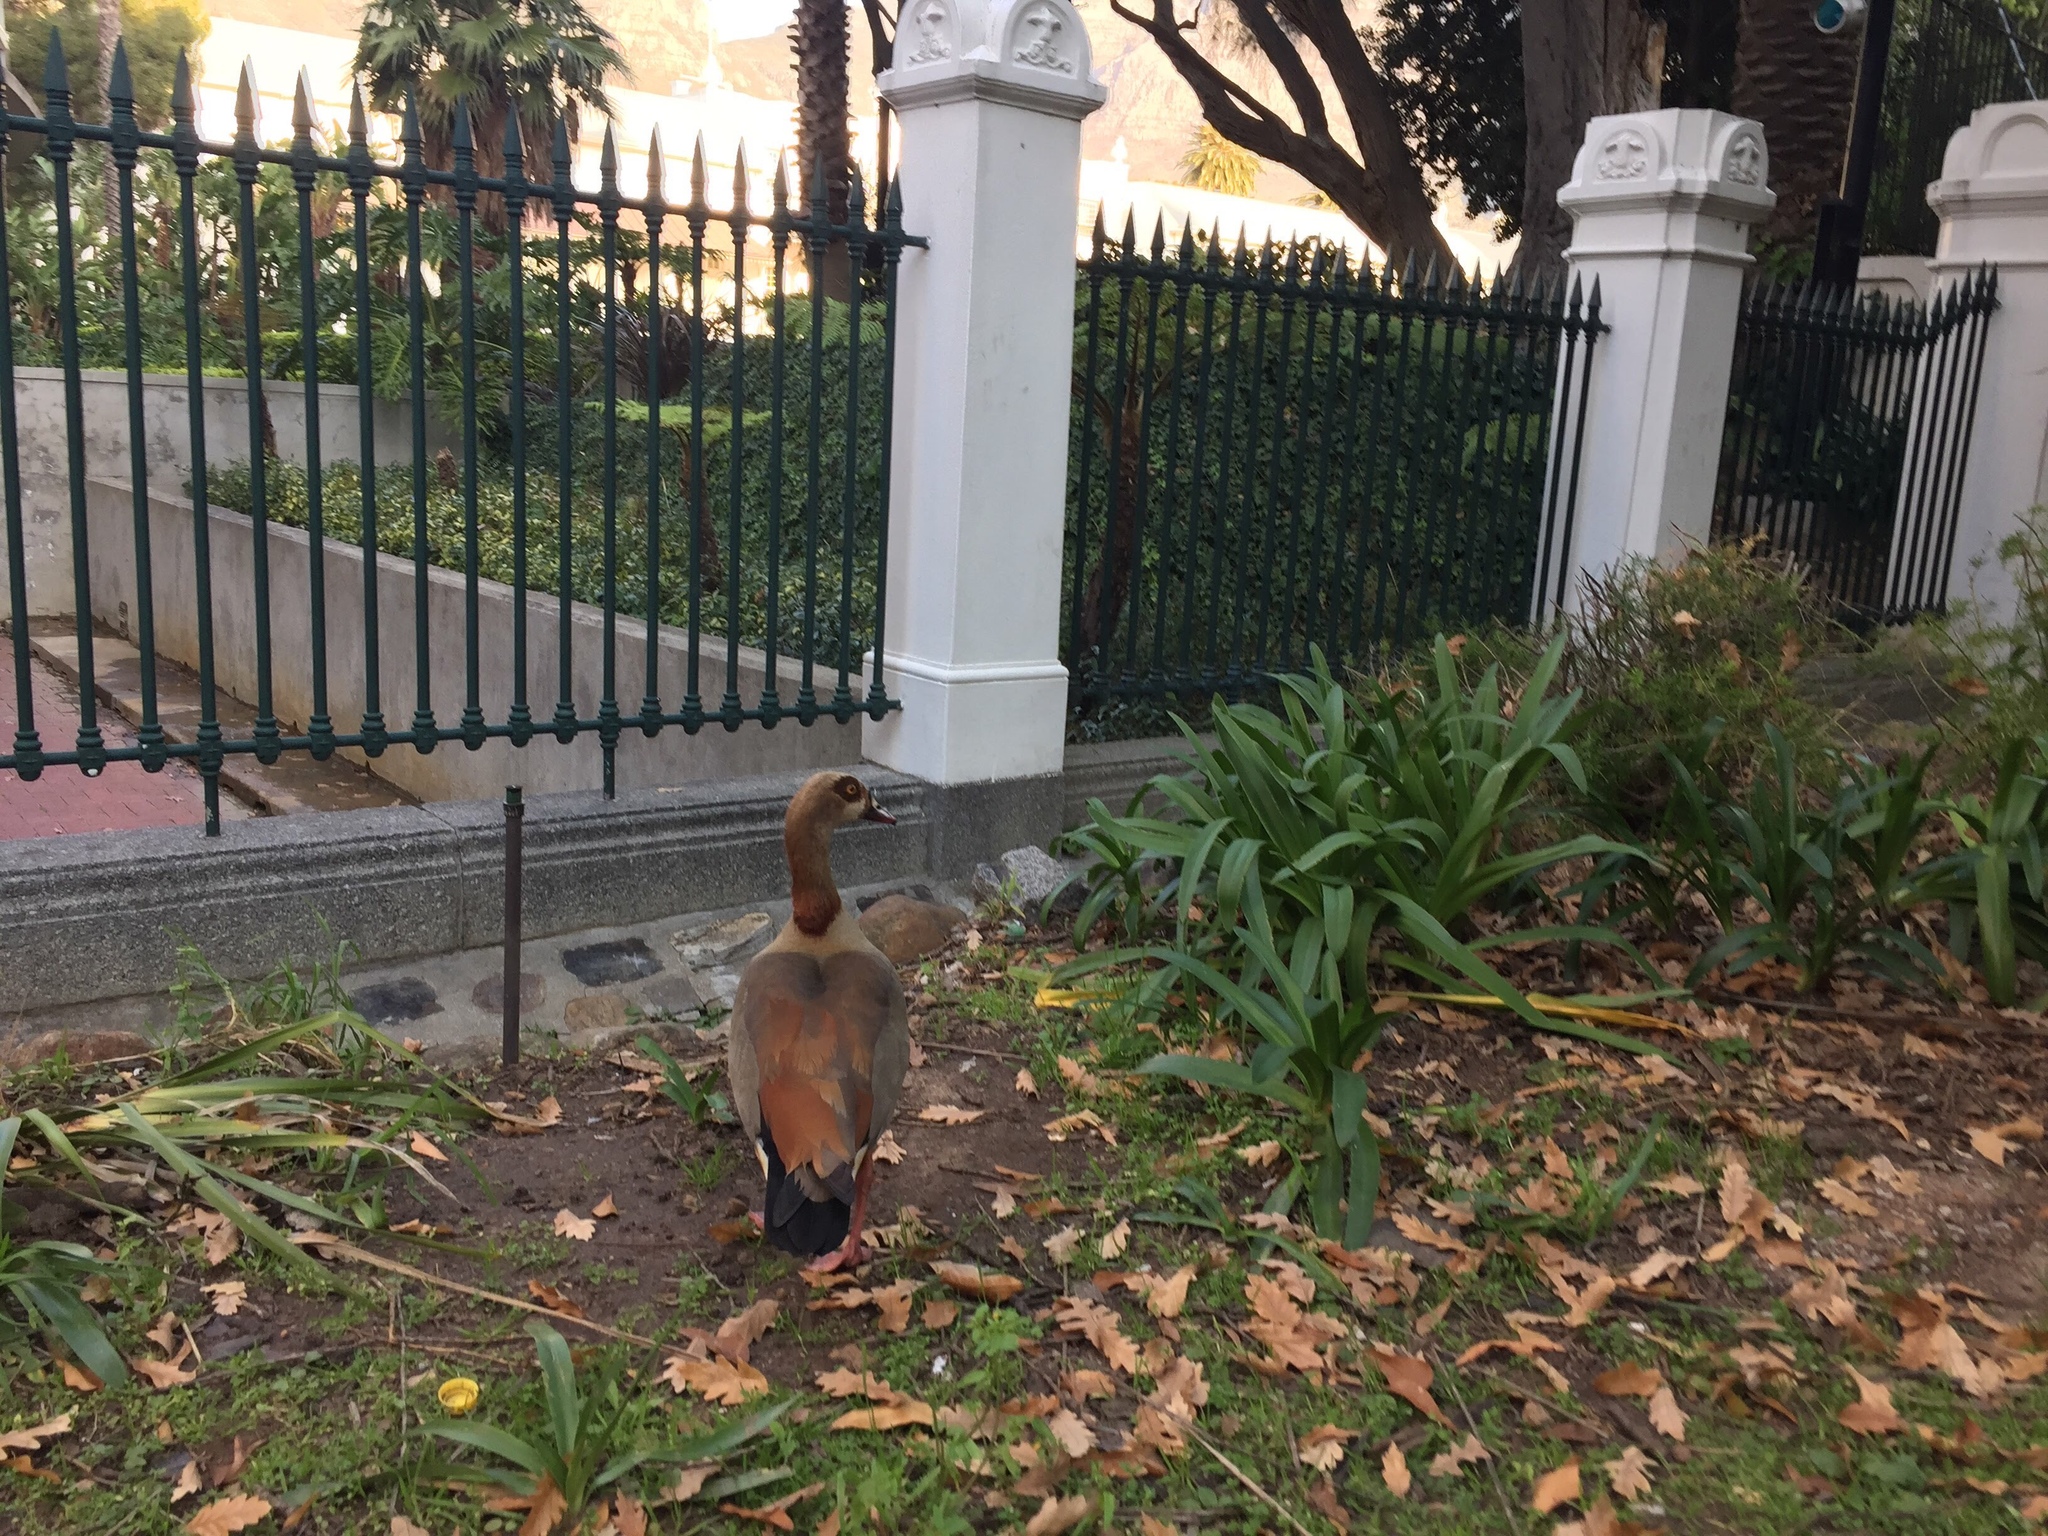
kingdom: Animalia
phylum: Chordata
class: Aves
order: Anseriformes
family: Anatidae
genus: Alopochen
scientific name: Alopochen aegyptiaca
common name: Egyptian goose
